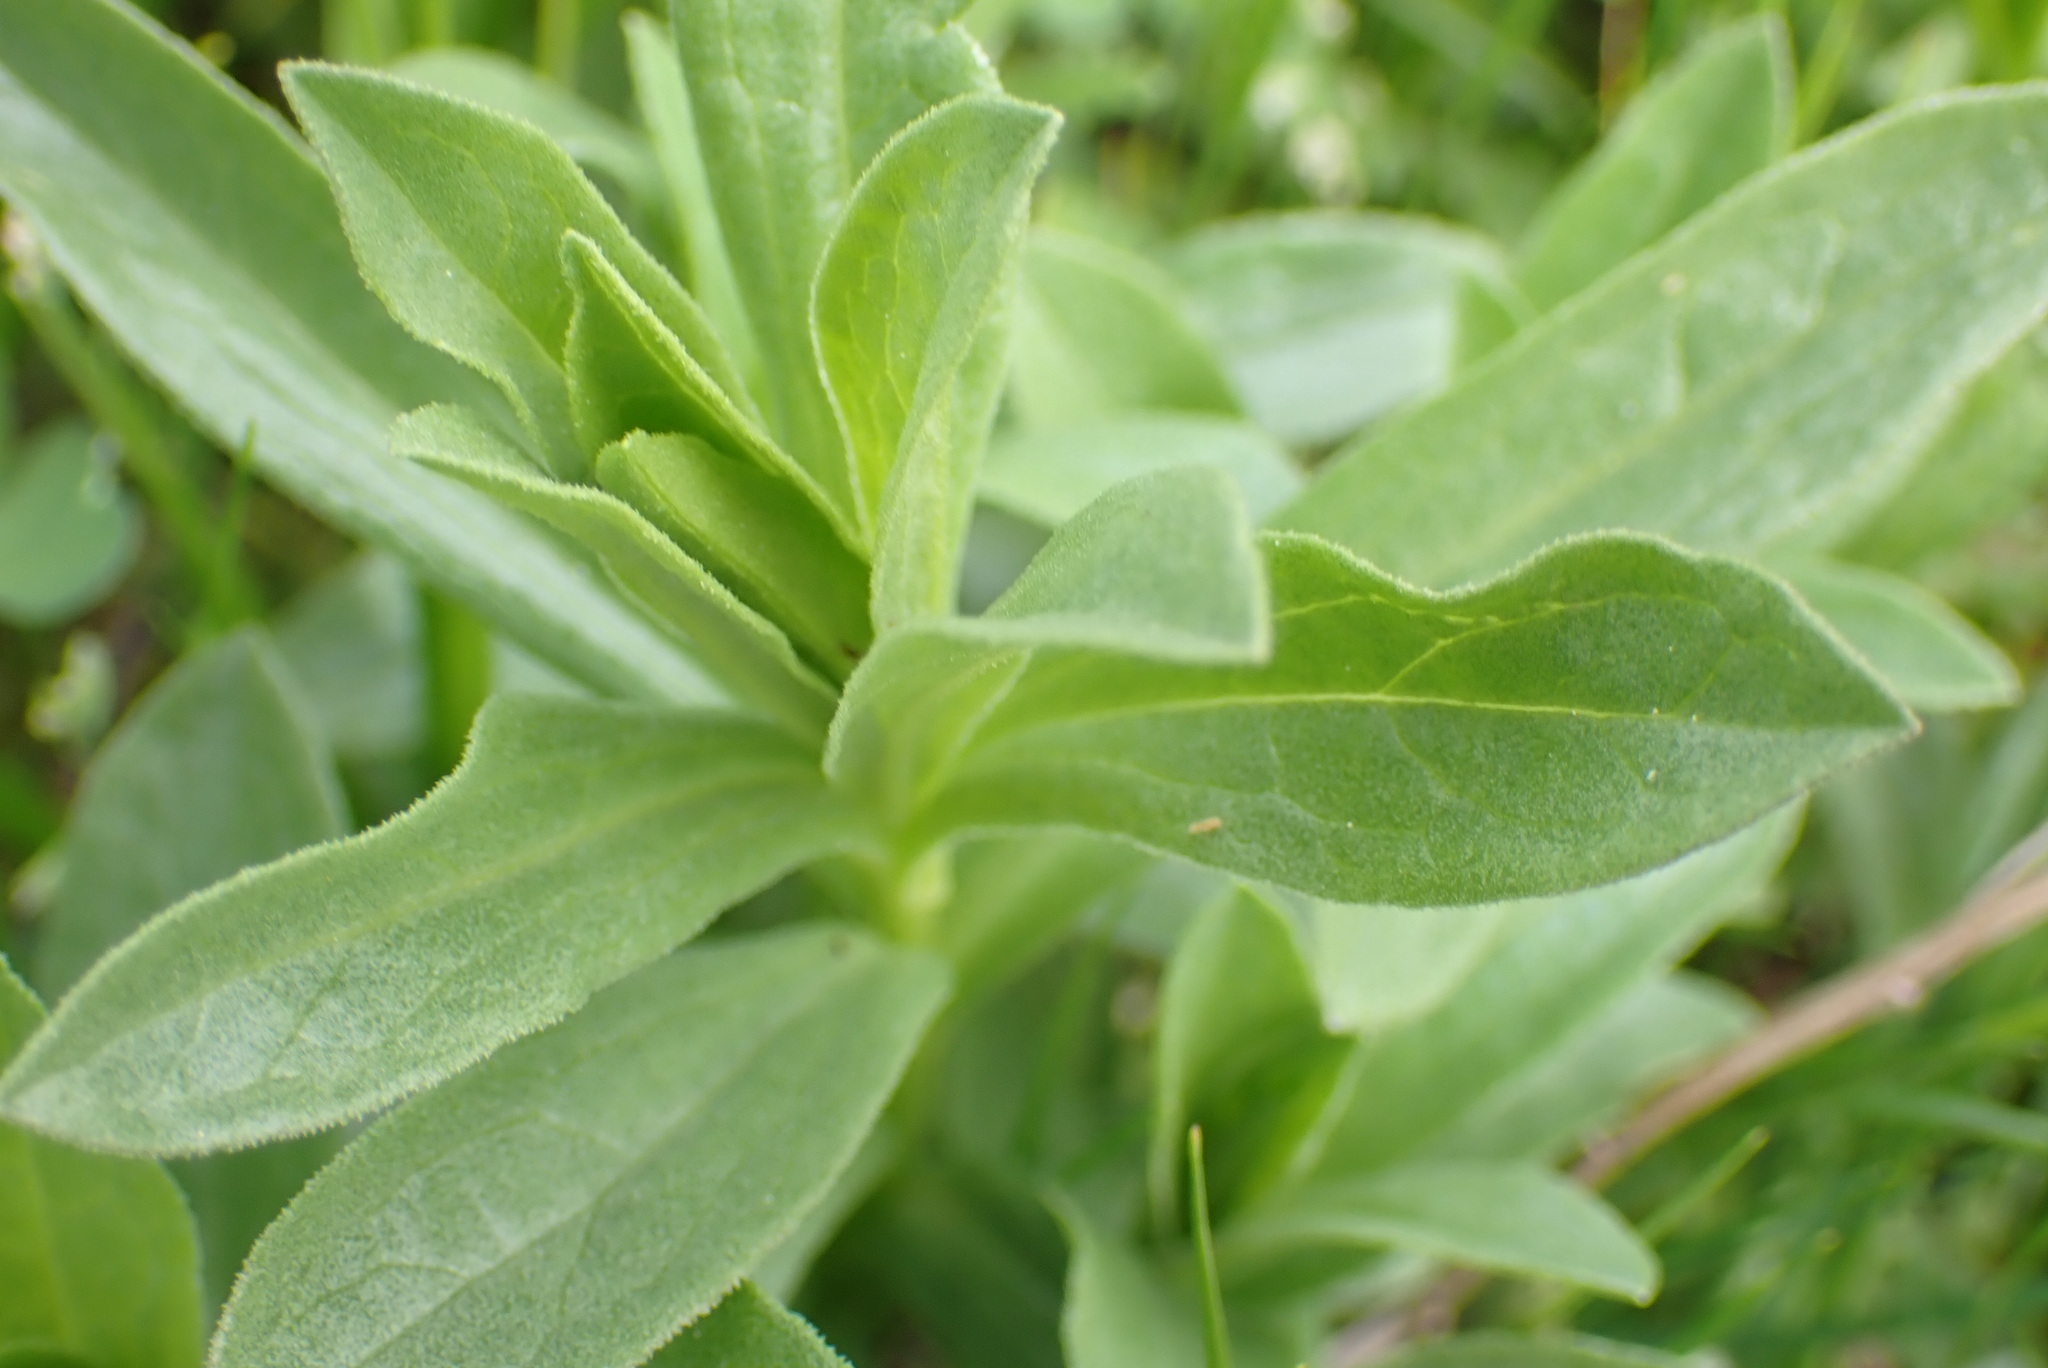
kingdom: Plantae
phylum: Tracheophyta
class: Magnoliopsida
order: Asterales
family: Asteraceae
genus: Sericocarpus
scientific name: Sericocarpus rigidus
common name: Columbia white-top aster
